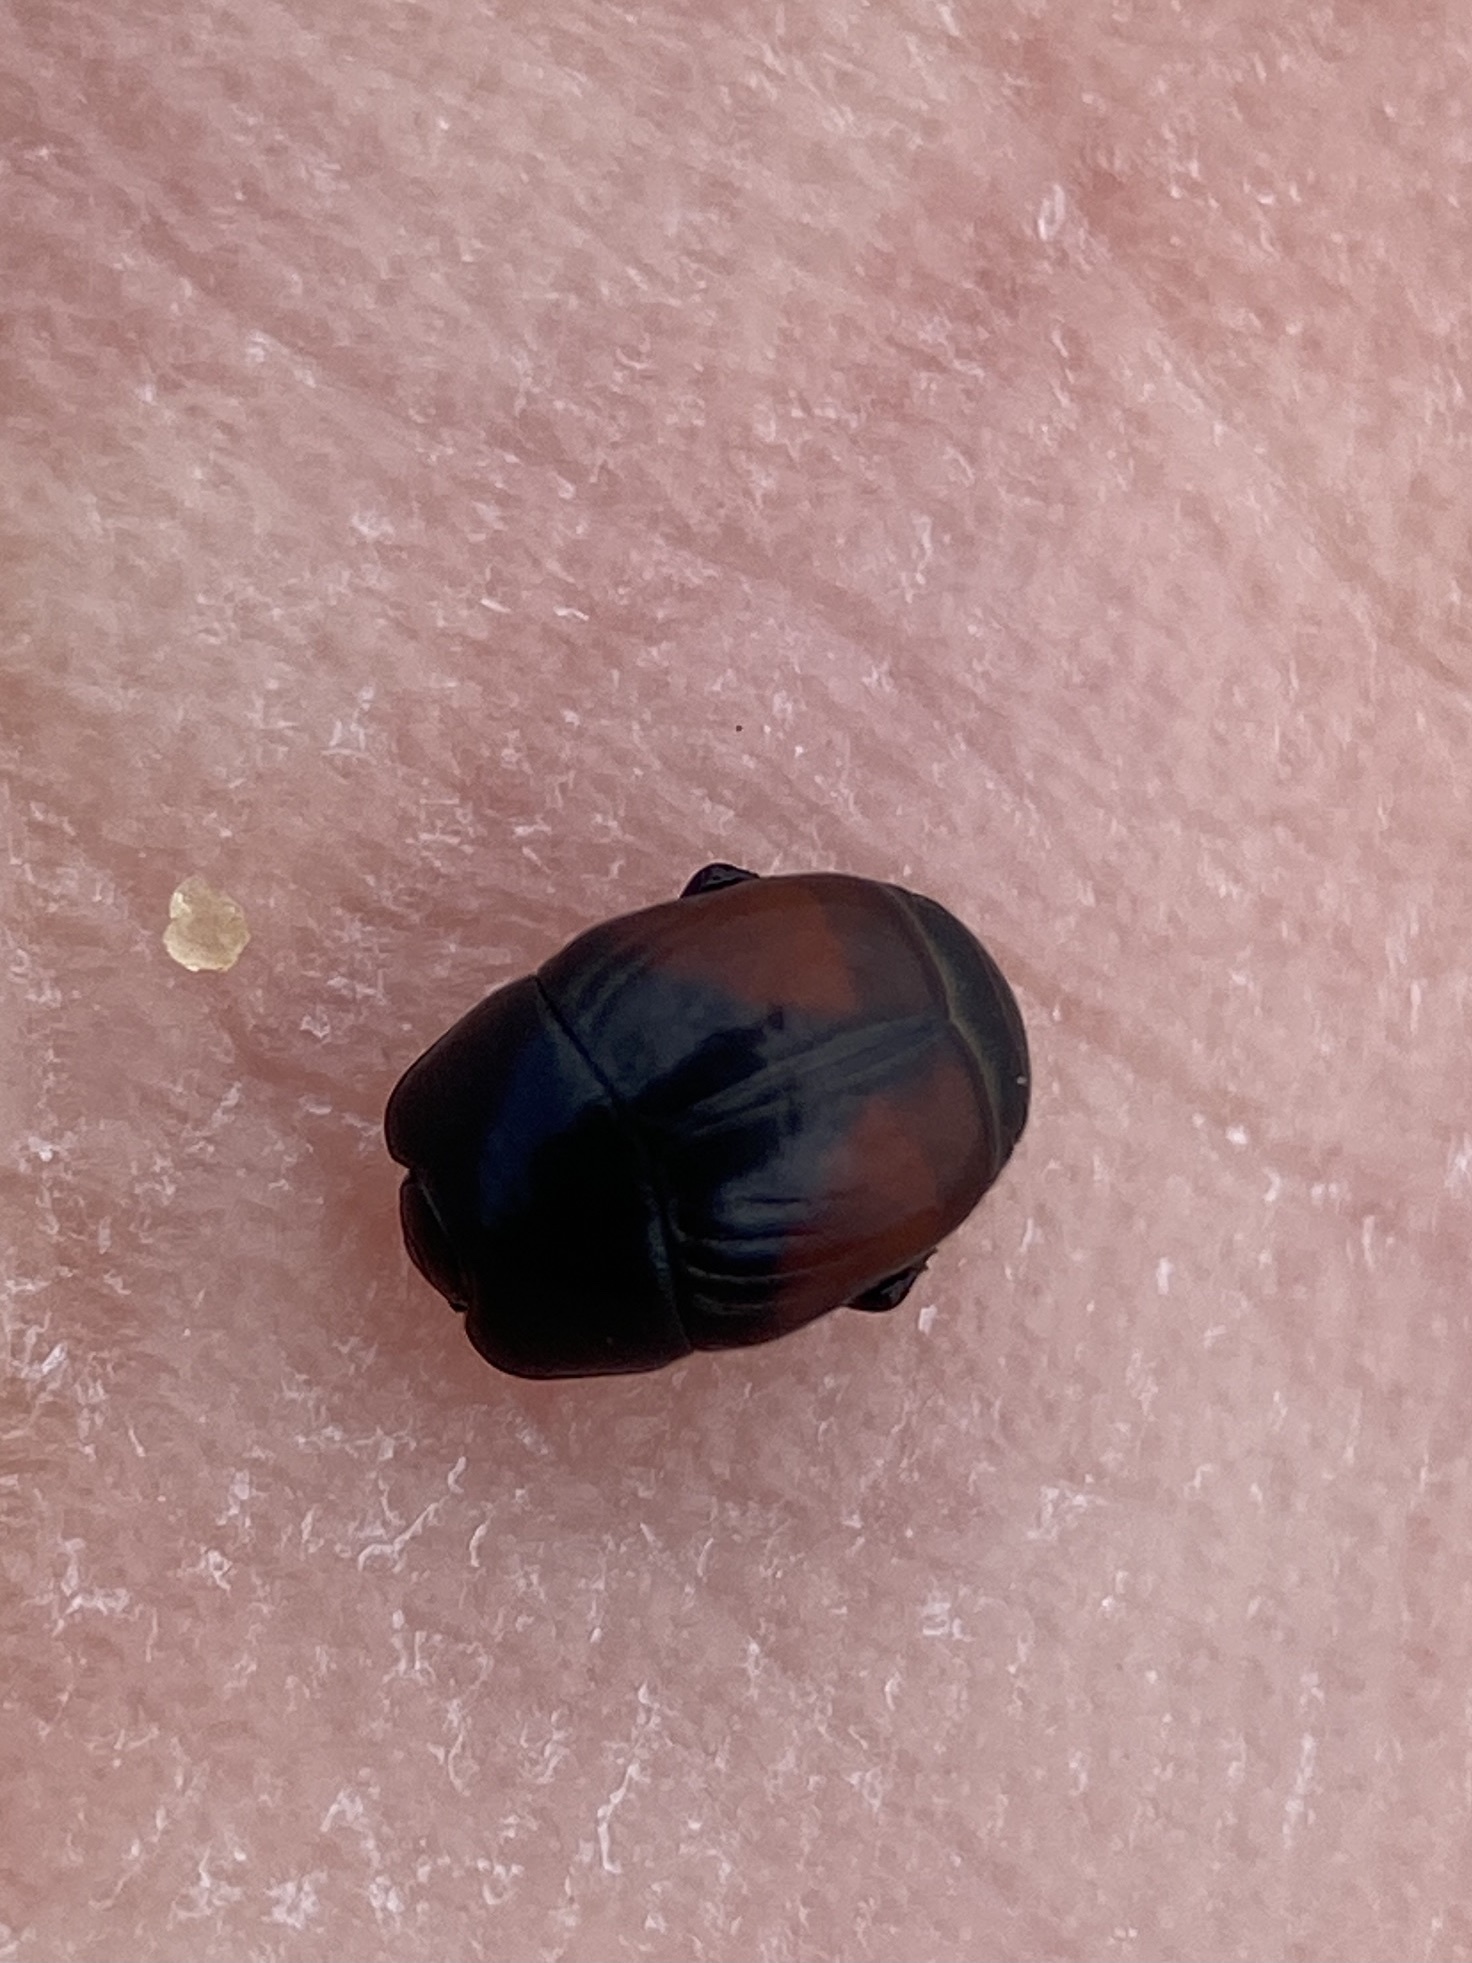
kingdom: Animalia
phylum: Arthropoda
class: Insecta
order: Coleoptera
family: Histeridae
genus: Hypocaccus
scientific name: Hypocaccus dimidiatipennis
